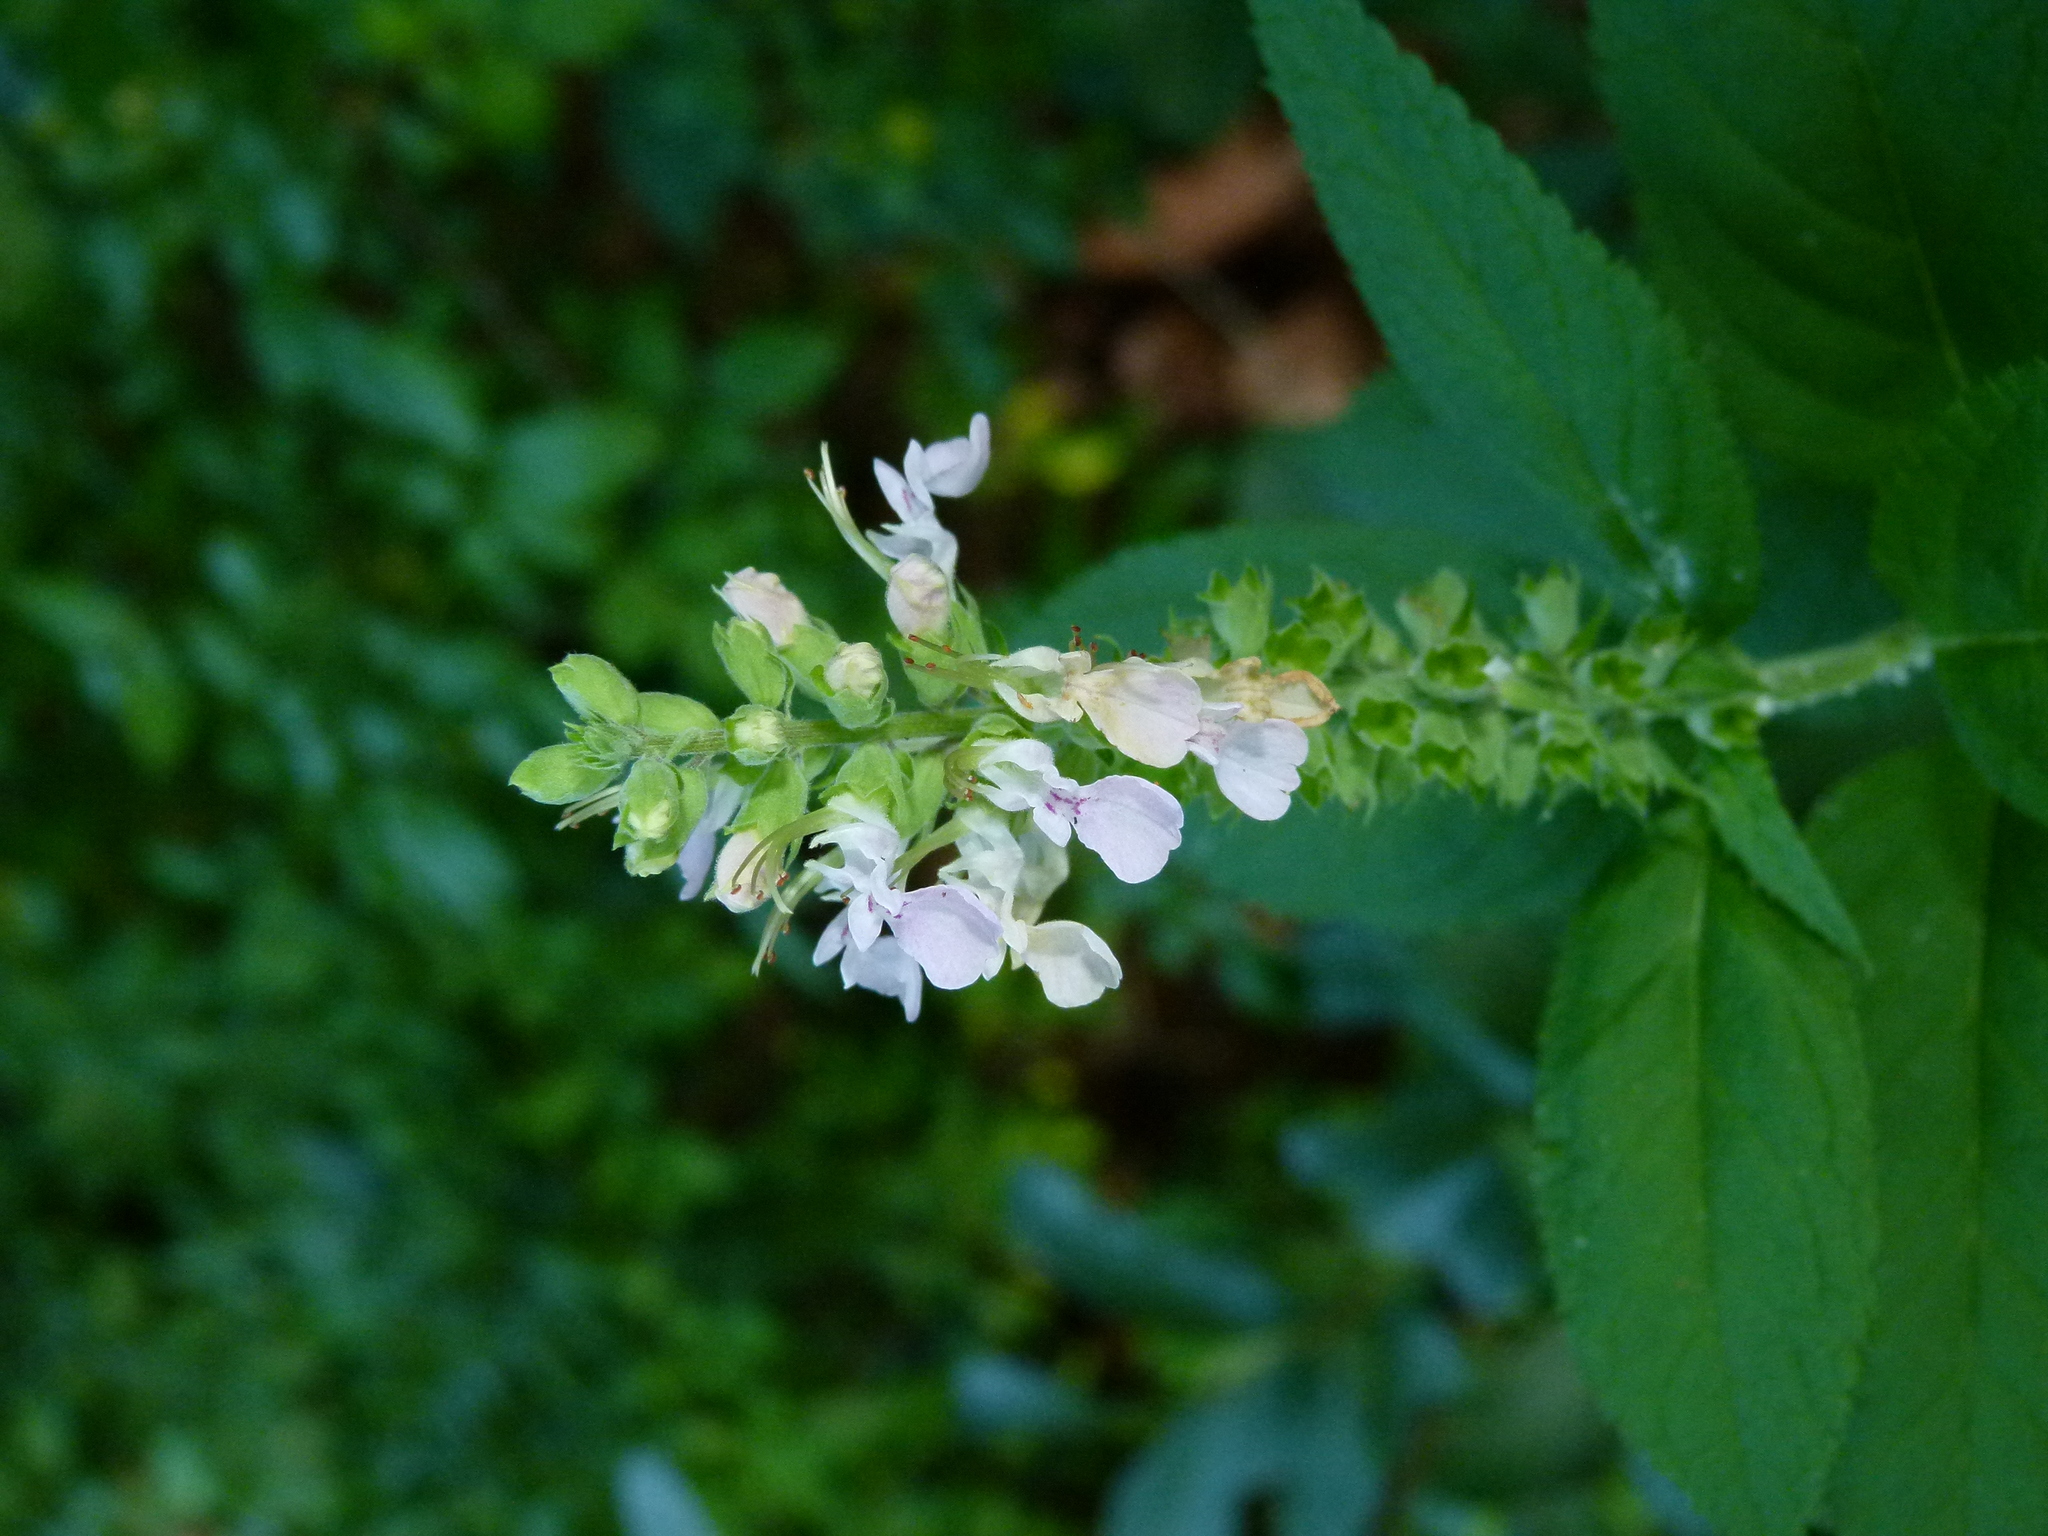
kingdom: Plantae
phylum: Tracheophyta
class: Magnoliopsida
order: Lamiales
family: Lamiaceae
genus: Teucrium
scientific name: Teucrium canadense
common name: American germander
